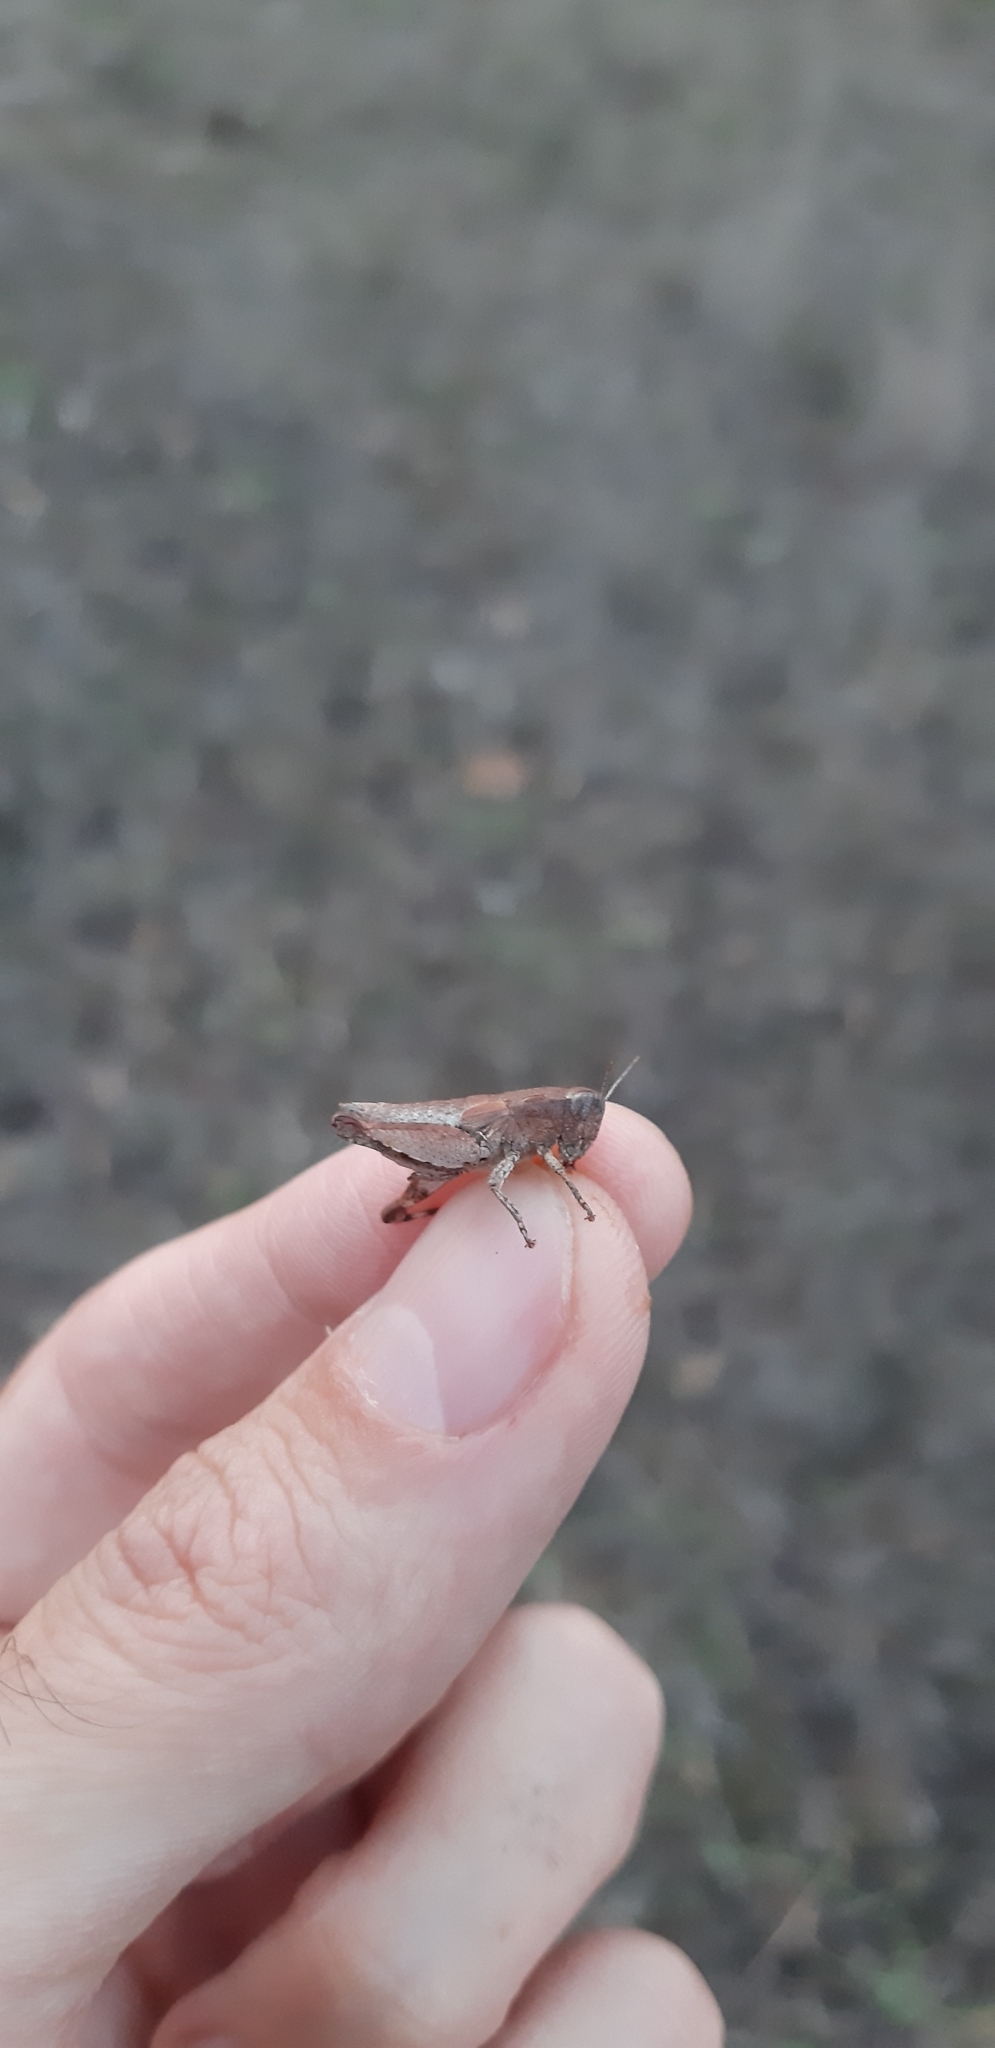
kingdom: Animalia
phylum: Arthropoda
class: Insecta
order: Orthoptera
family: Acrididae
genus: Pezotettix
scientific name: Pezotettix giornae
